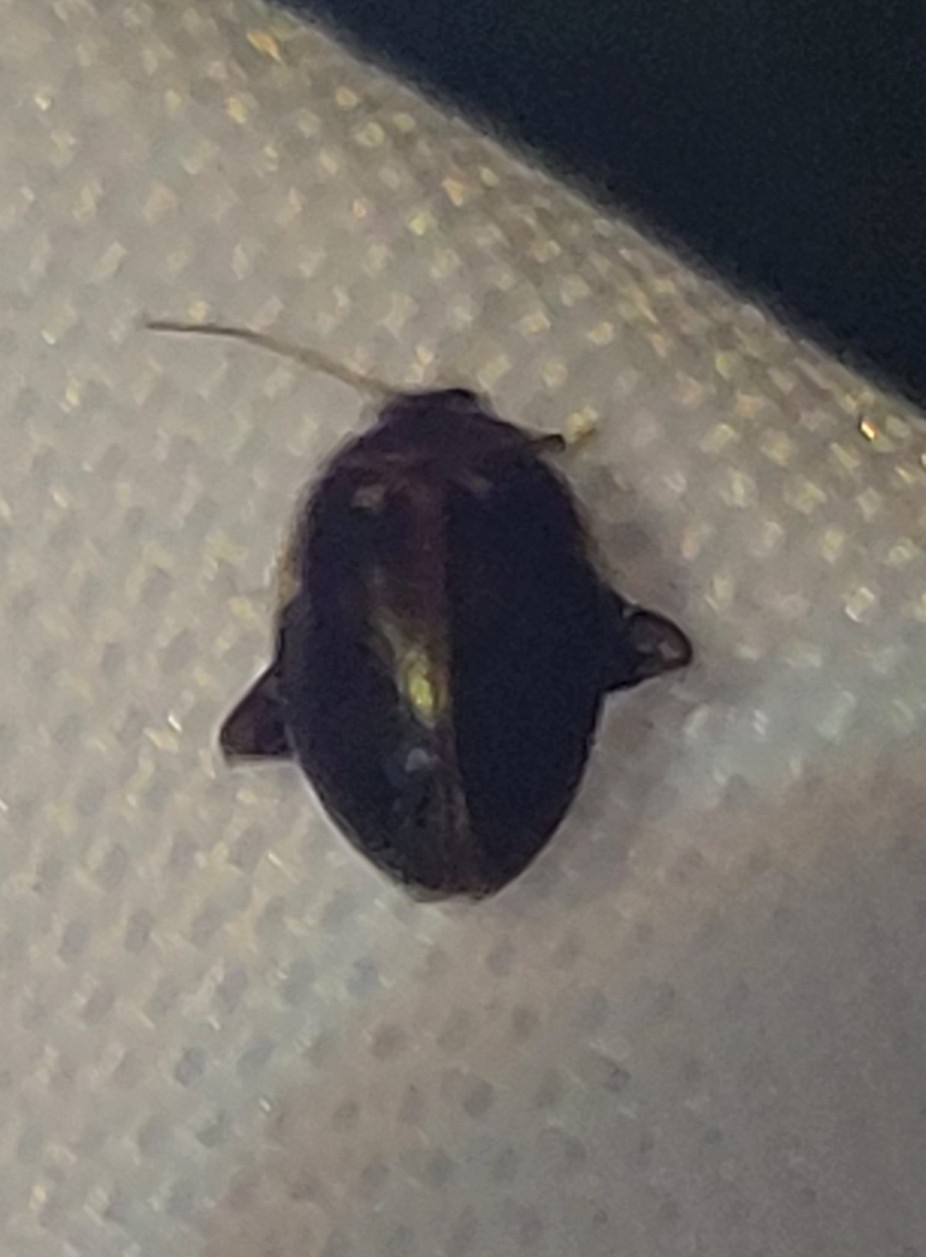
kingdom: Animalia
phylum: Arthropoda
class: Insecta
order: Coleoptera
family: Scirtidae
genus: Ora
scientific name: Ora texana
